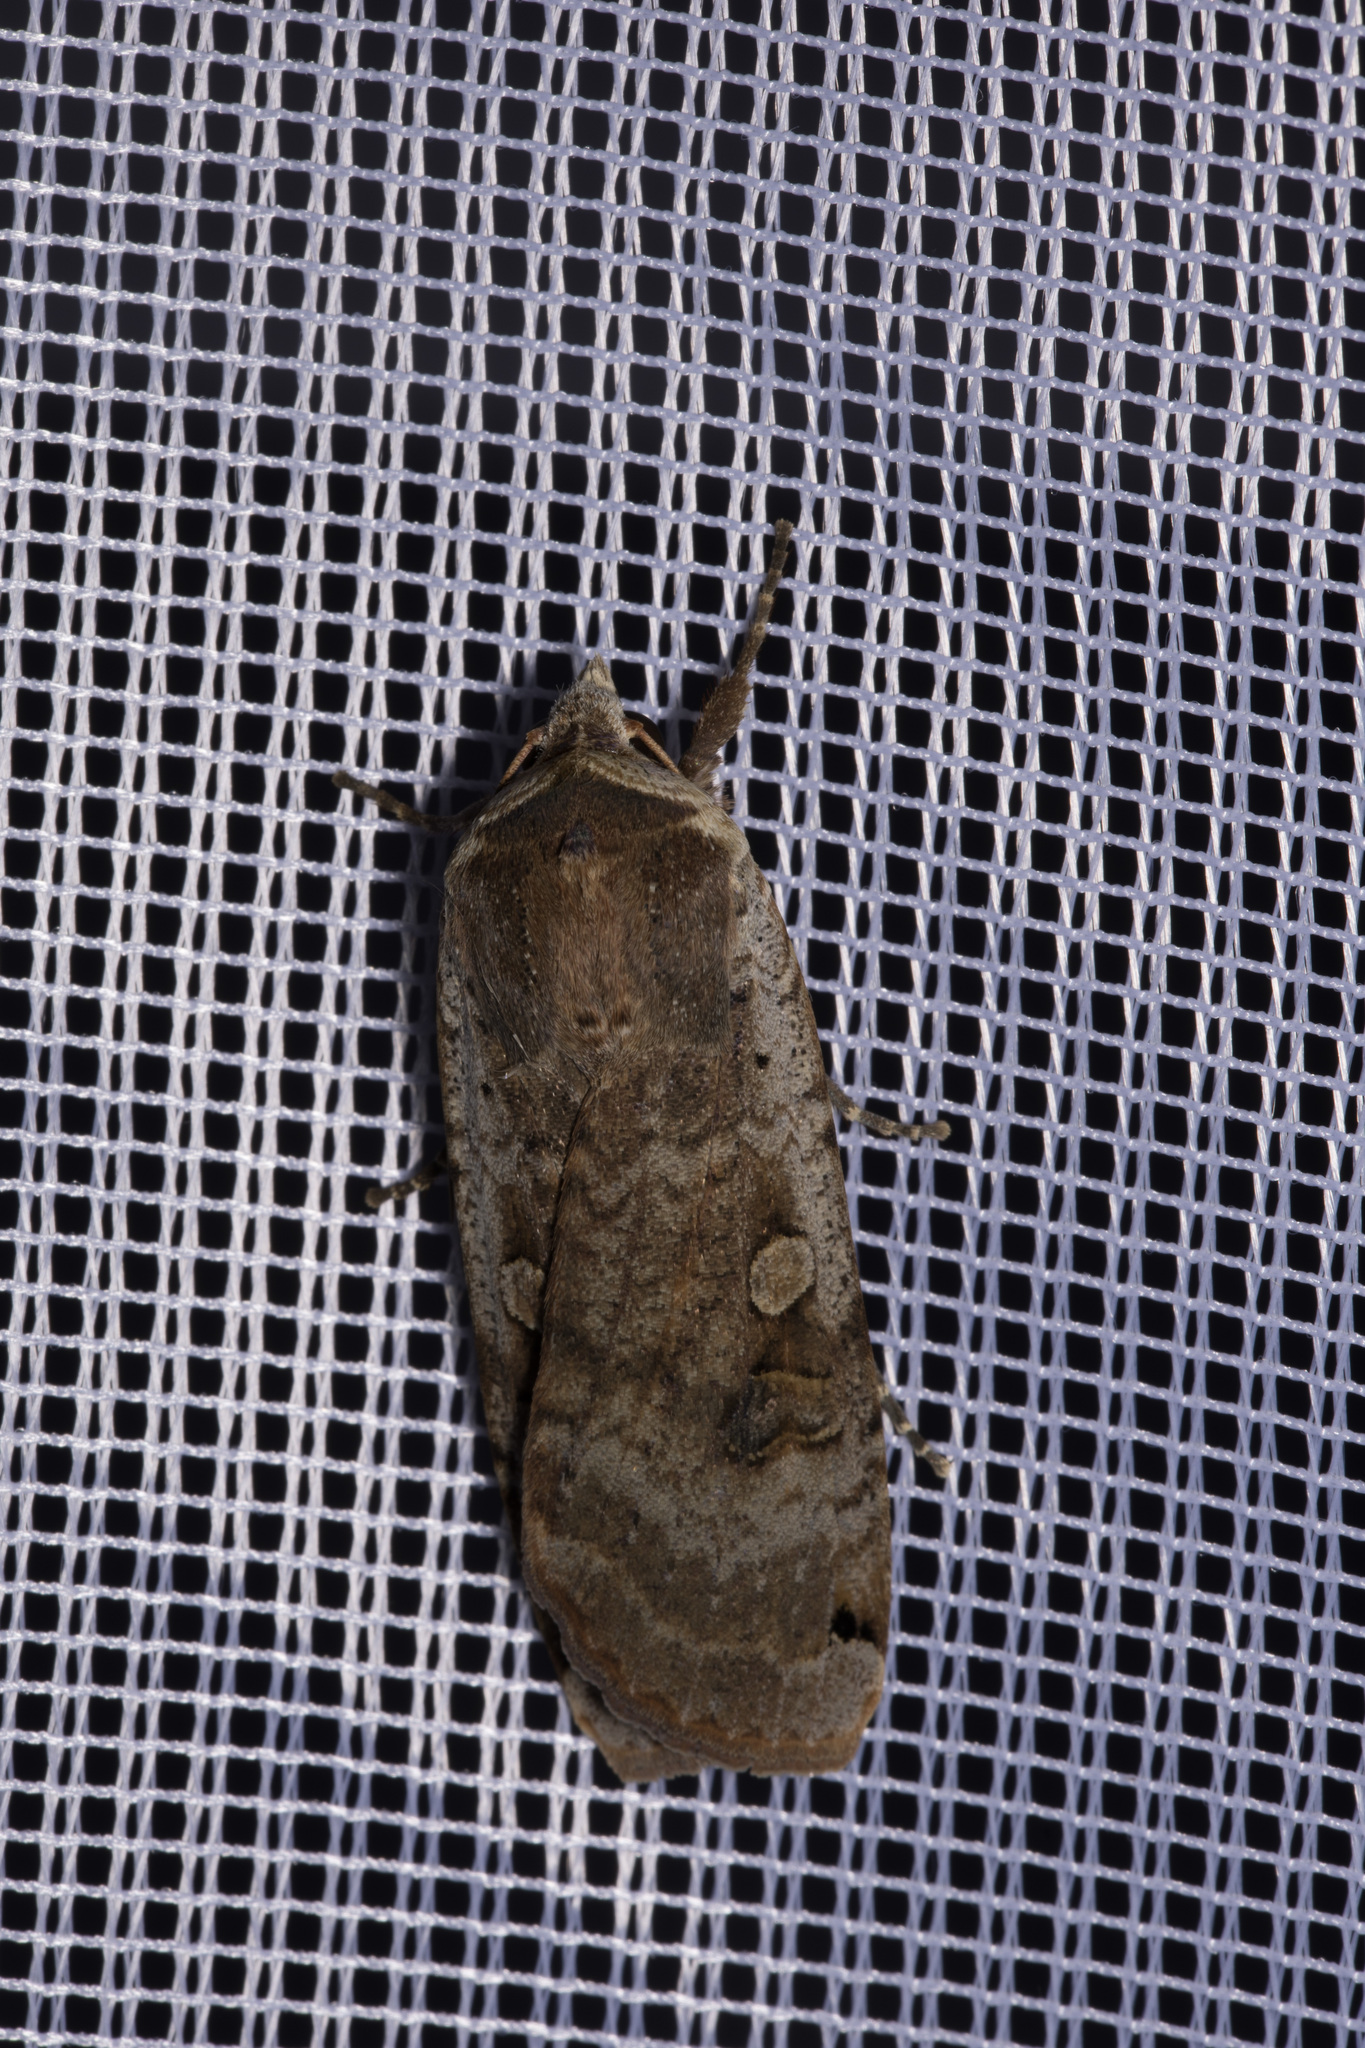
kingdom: Animalia
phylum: Arthropoda
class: Insecta
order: Lepidoptera
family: Noctuidae
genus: Noctua
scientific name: Noctua pronuba
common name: Large yellow underwing
